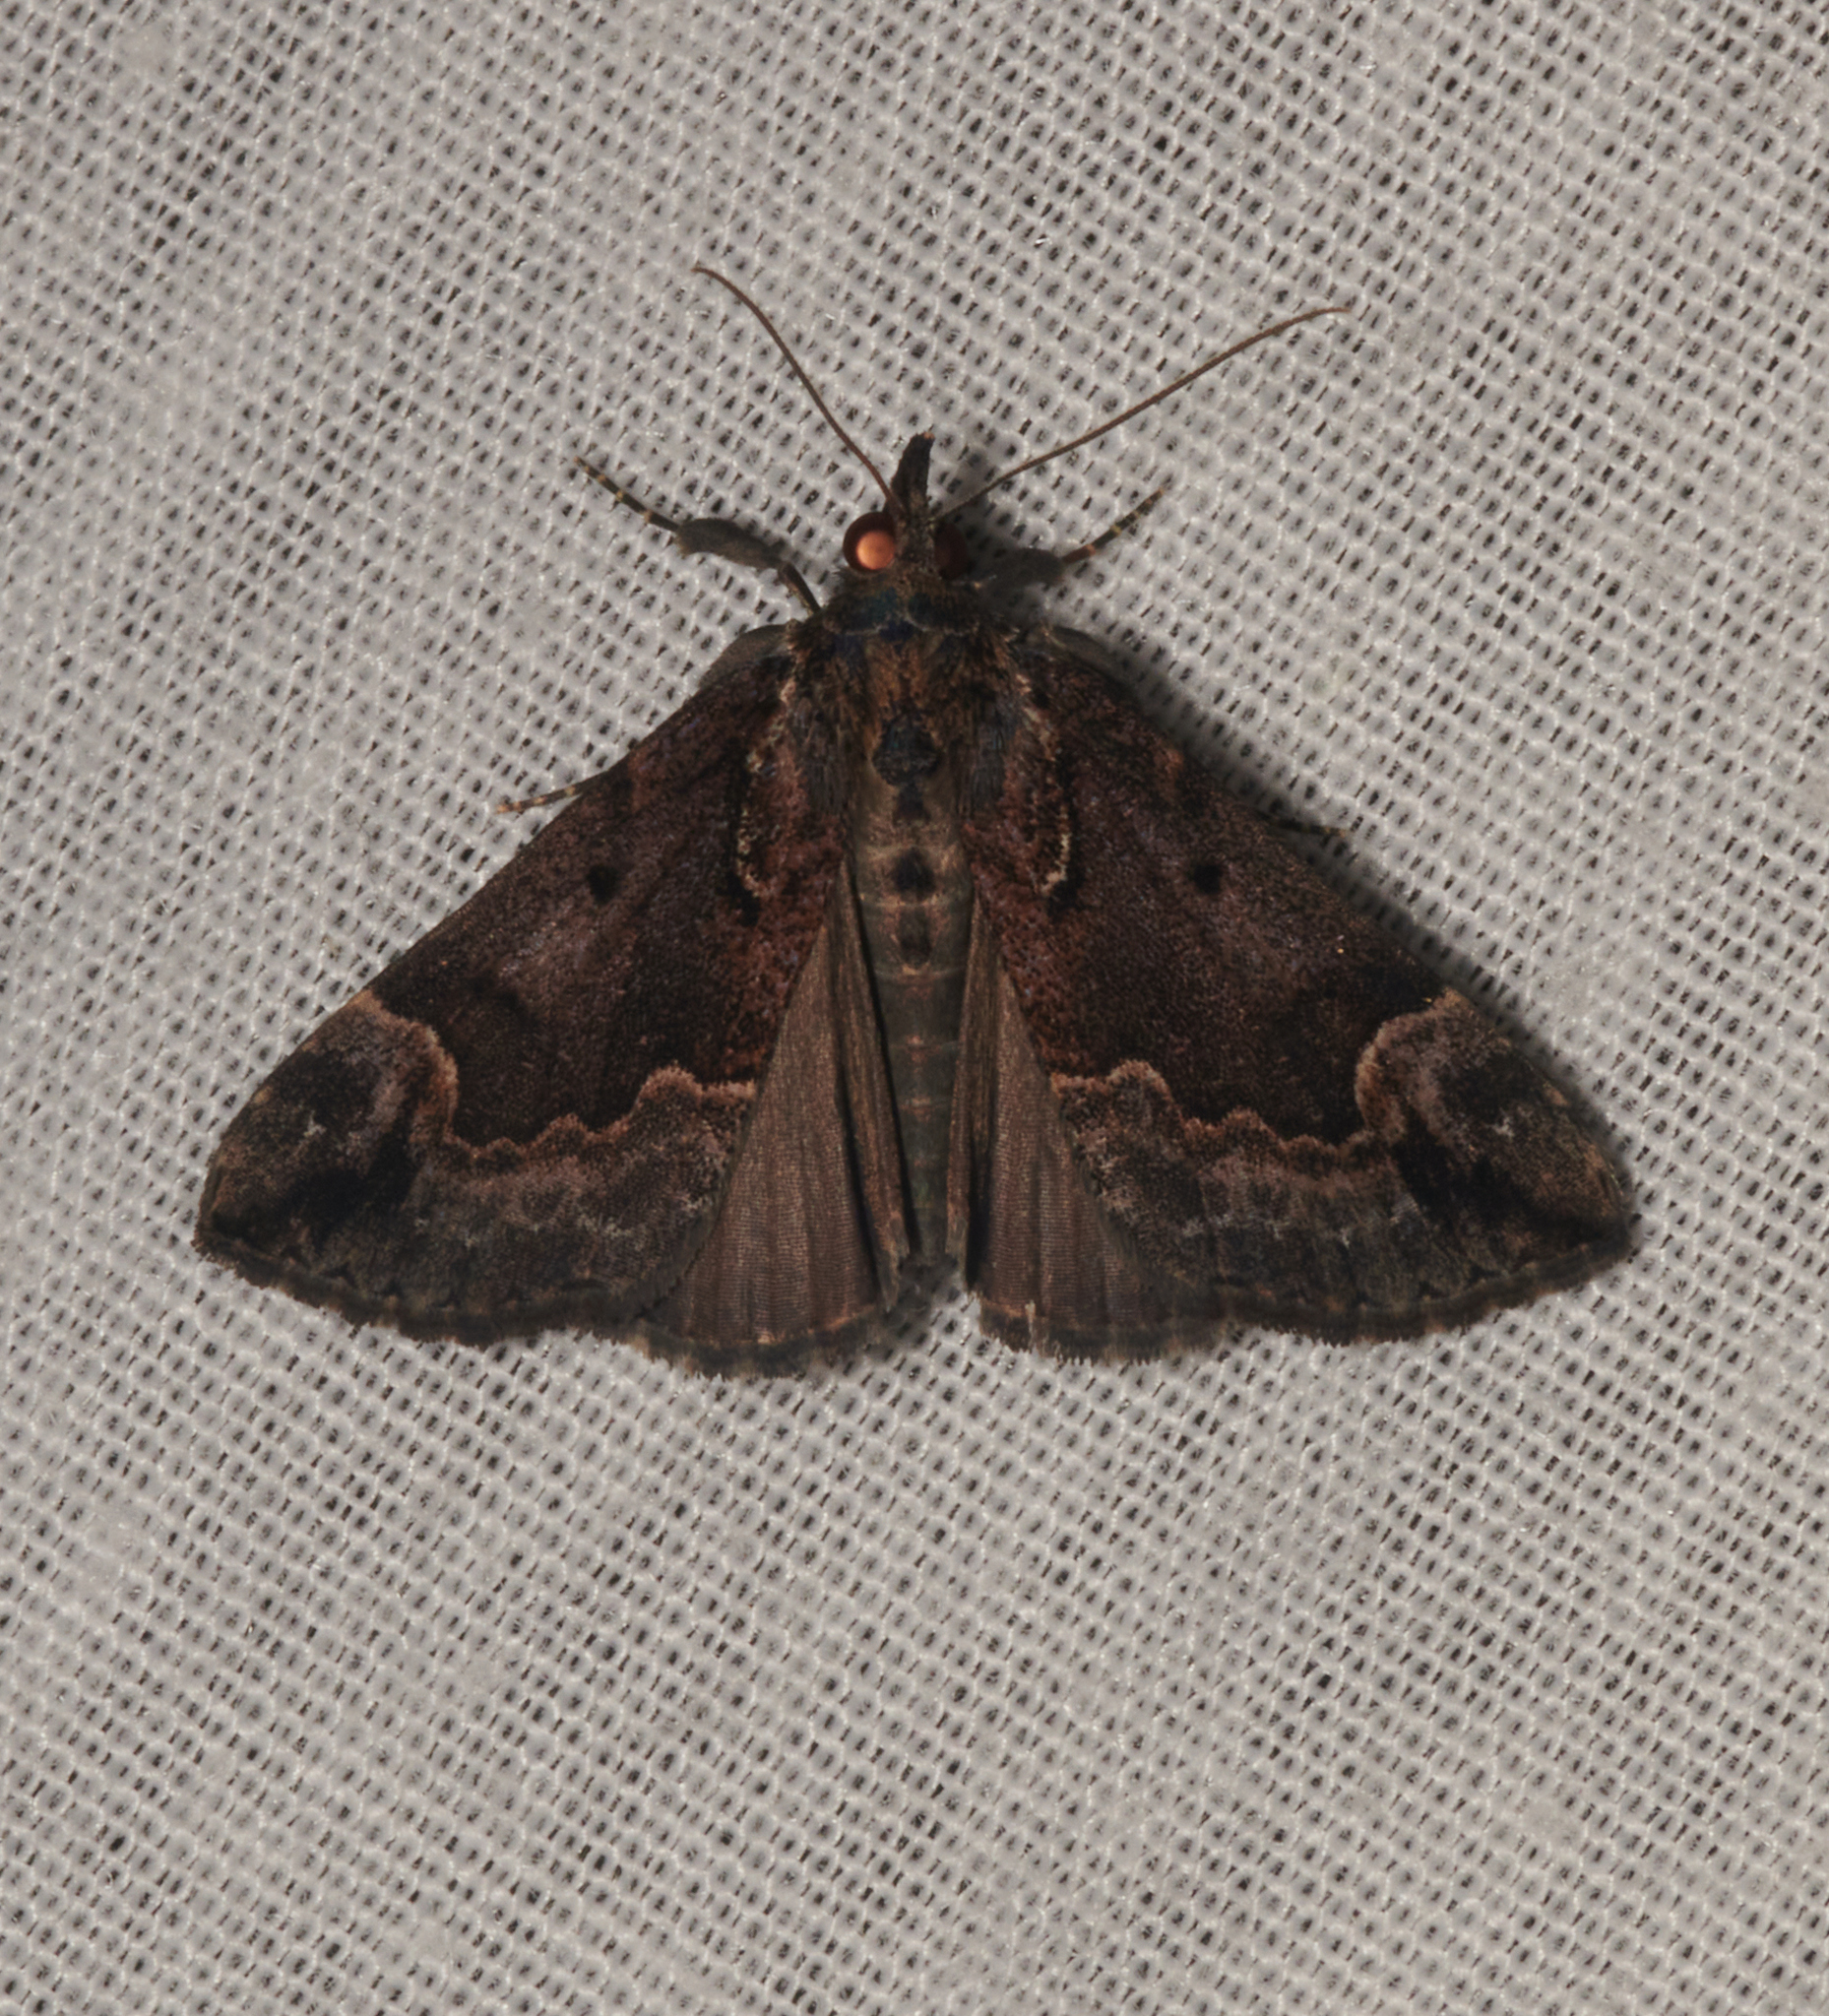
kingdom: Animalia
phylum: Arthropoda
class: Insecta
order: Lepidoptera
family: Erebidae
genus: Hypena
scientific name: Hypena baltimoralis
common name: Baltimore snout
